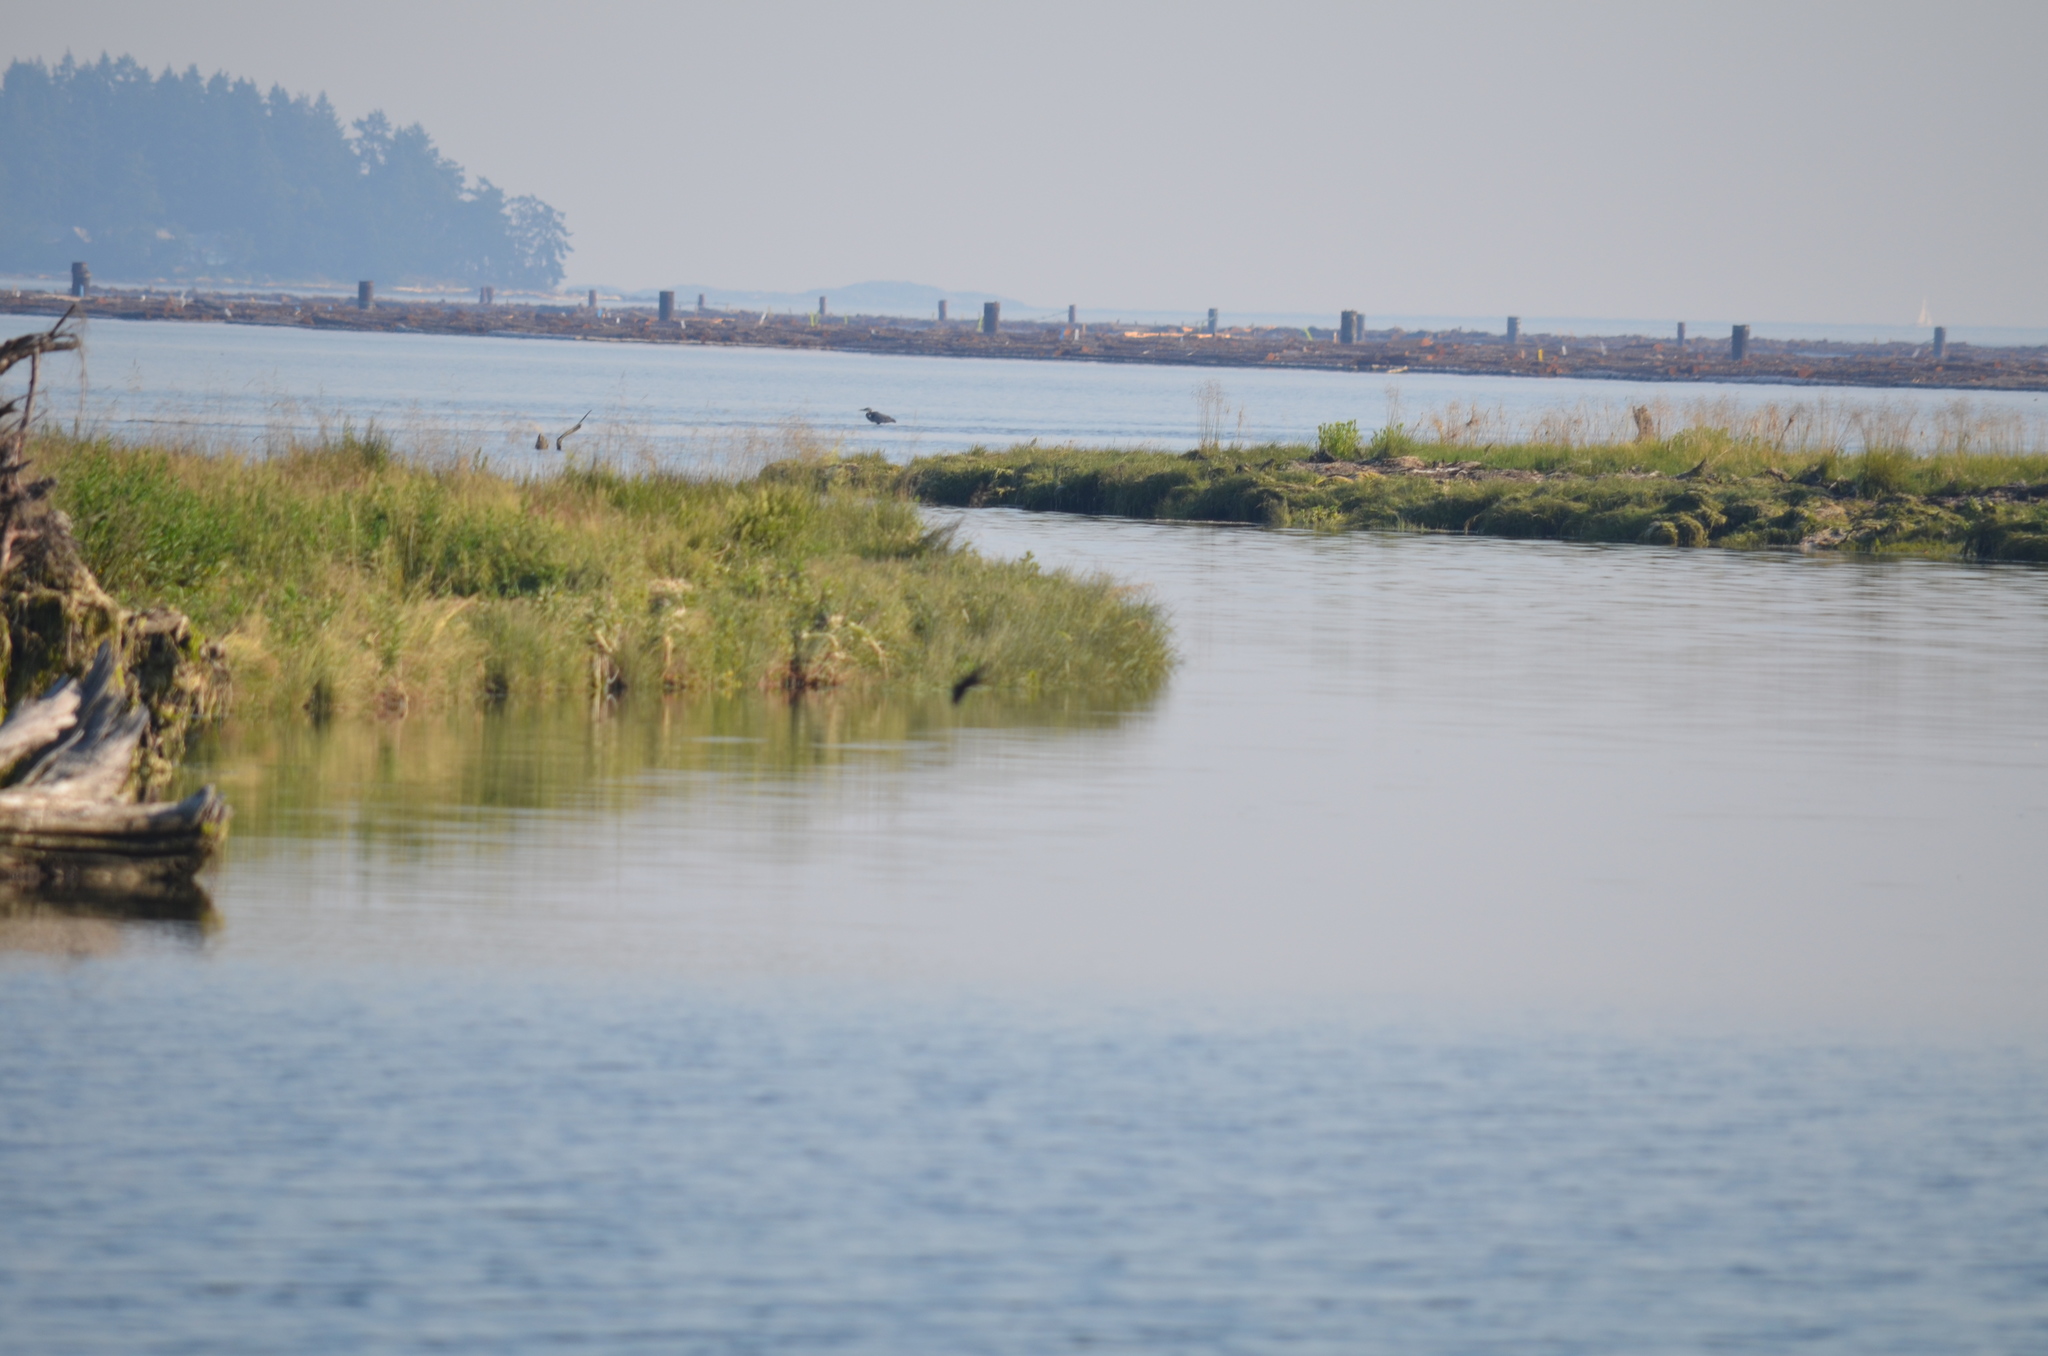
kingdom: Animalia
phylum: Chordata
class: Aves
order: Pelecaniformes
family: Ardeidae
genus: Ardea
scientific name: Ardea herodias
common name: Great blue heron
